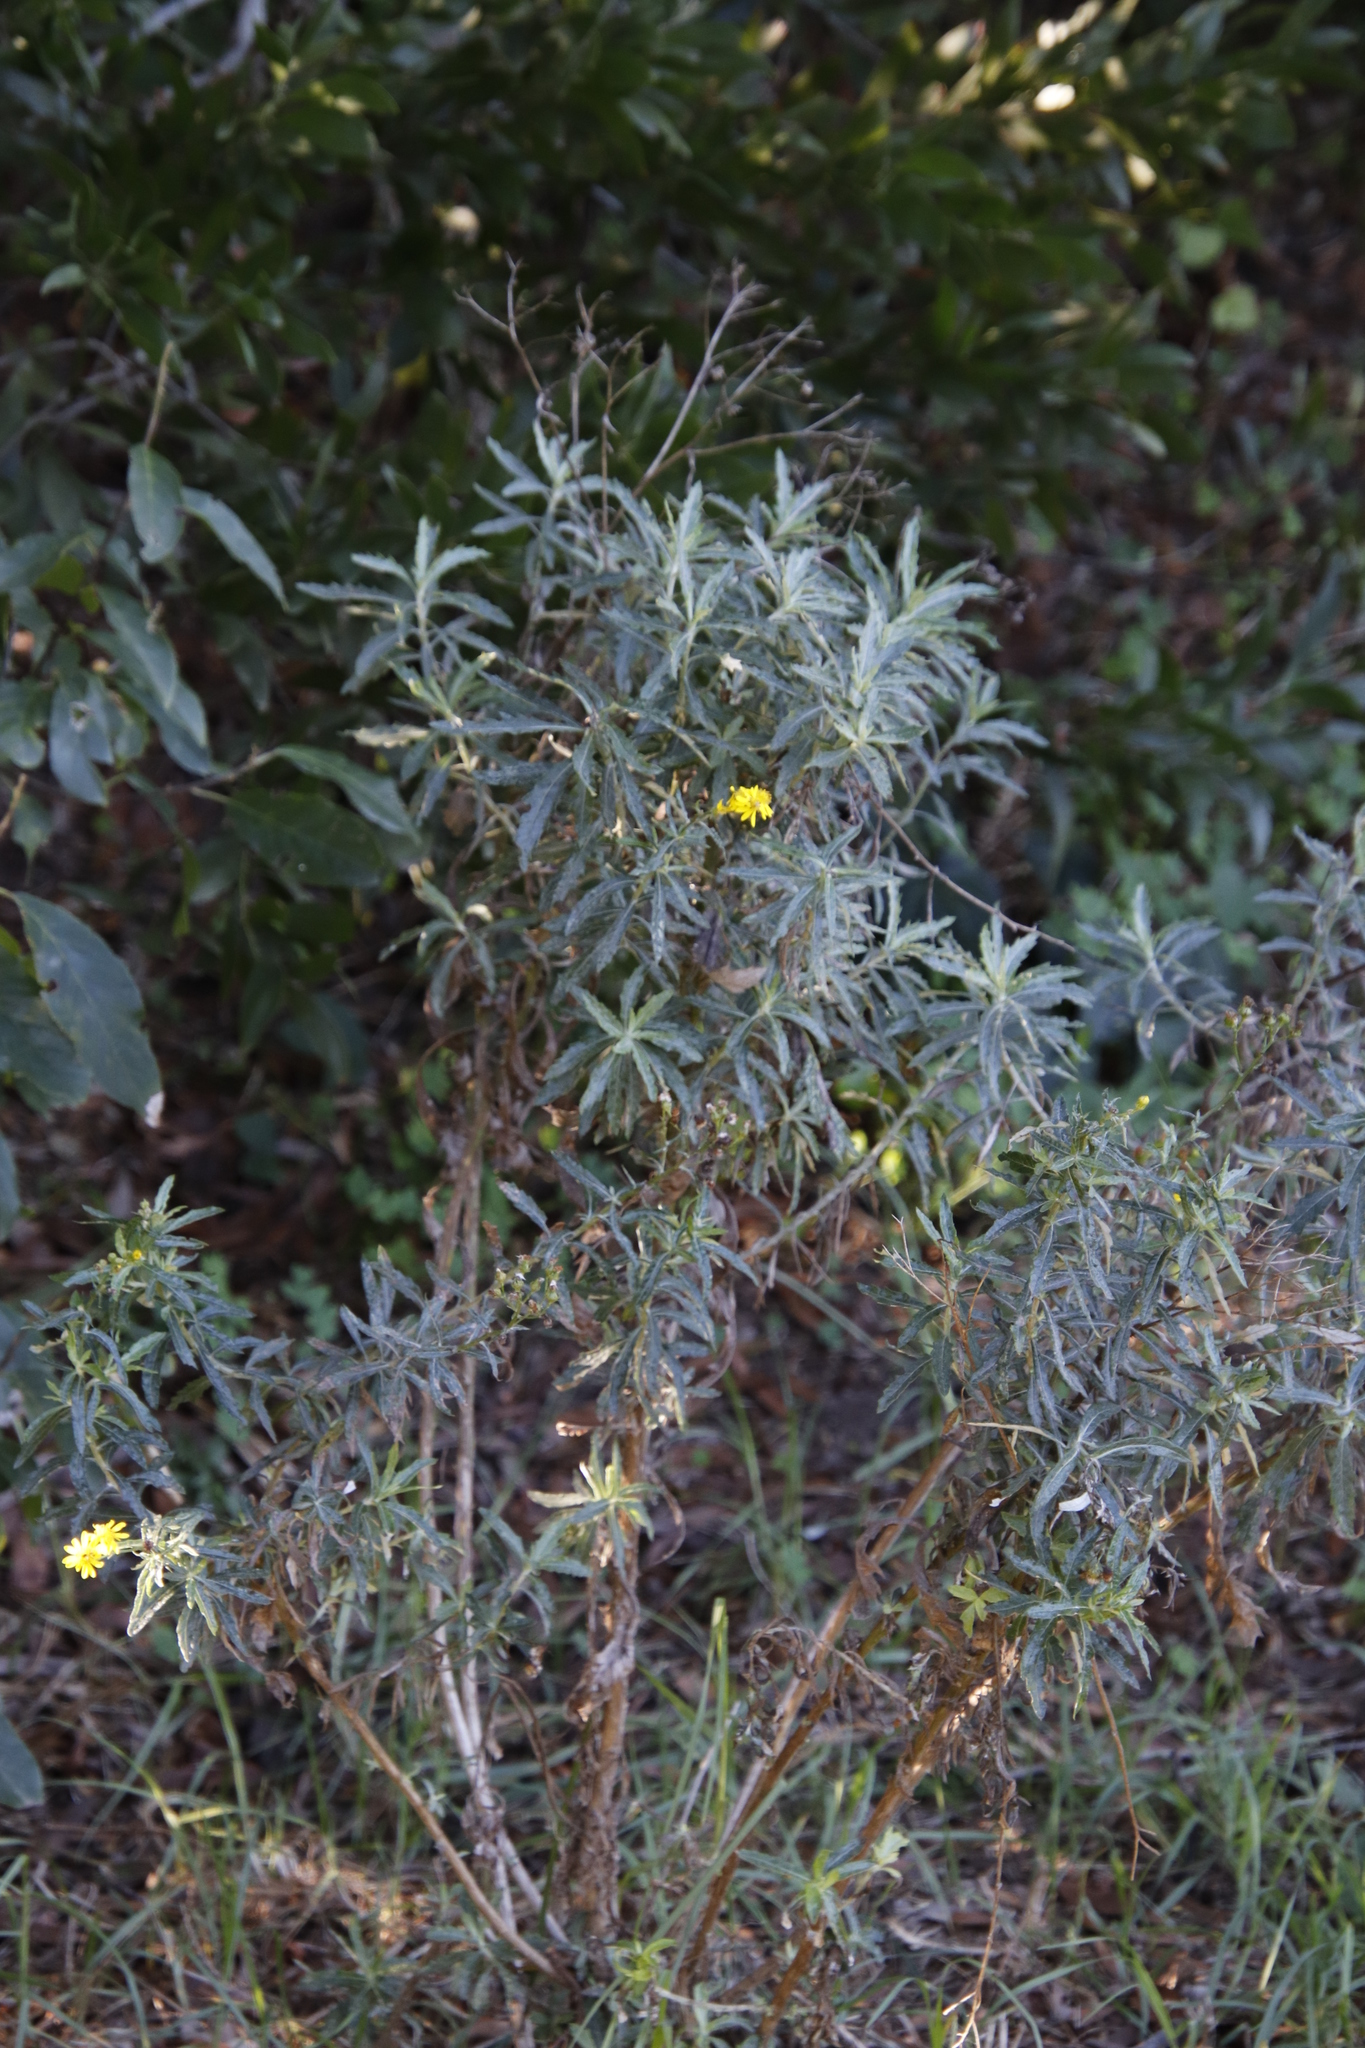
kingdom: Plantae
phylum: Tracheophyta
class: Magnoliopsida
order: Asterales
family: Asteraceae
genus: Senecio
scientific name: Senecio pterophorus
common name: Shoddy ragwort
